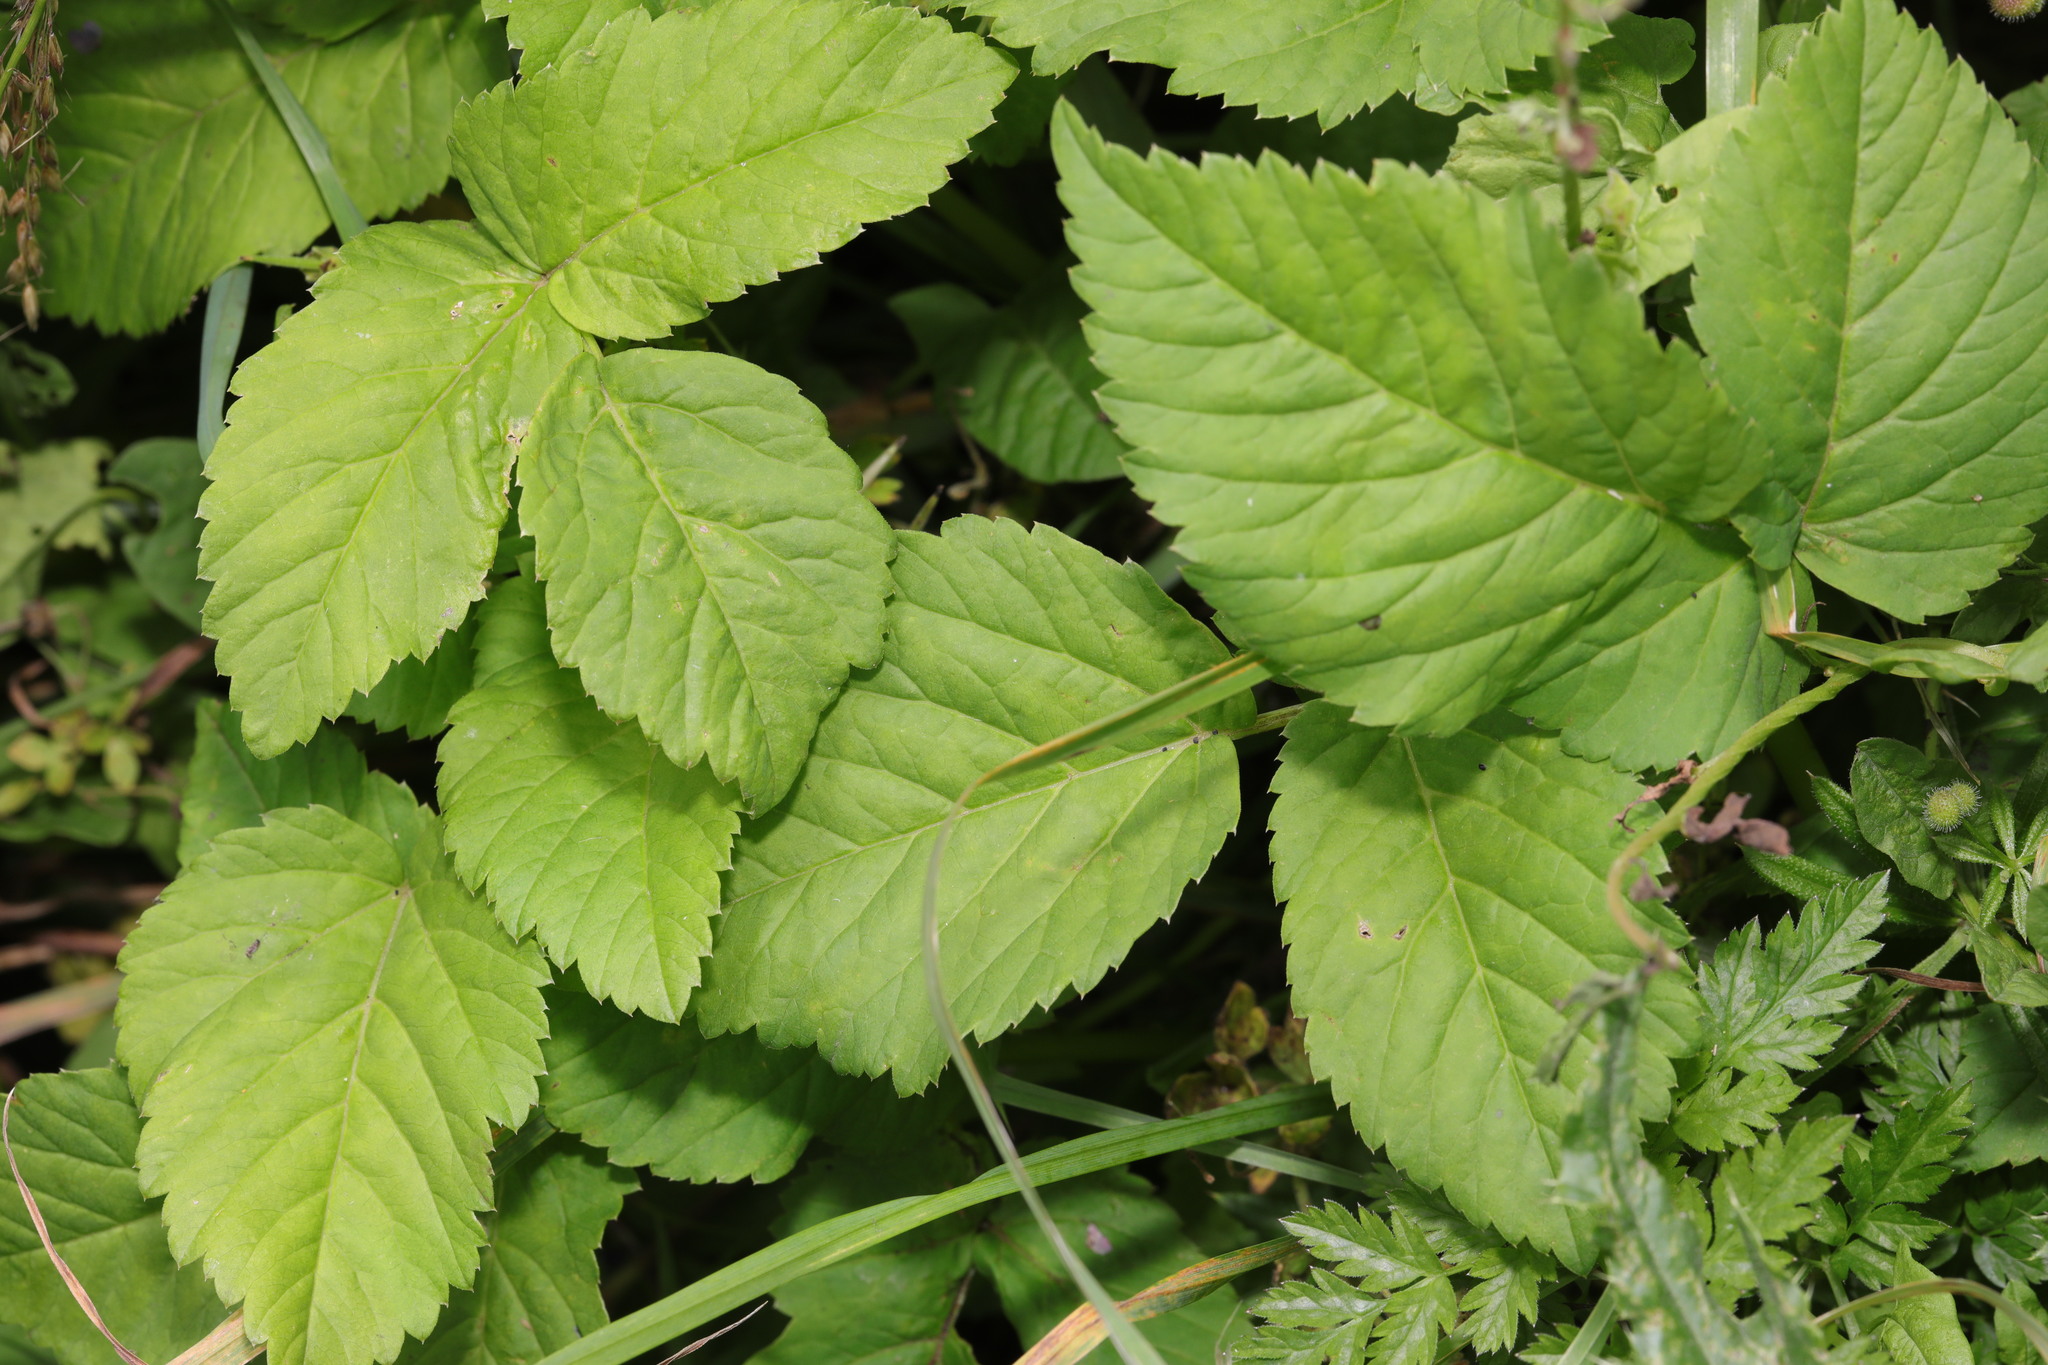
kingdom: Plantae
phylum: Tracheophyta
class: Magnoliopsida
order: Apiales
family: Apiaceae
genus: Aegopodium
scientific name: Aegopodium podagraria
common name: Ground-elder
